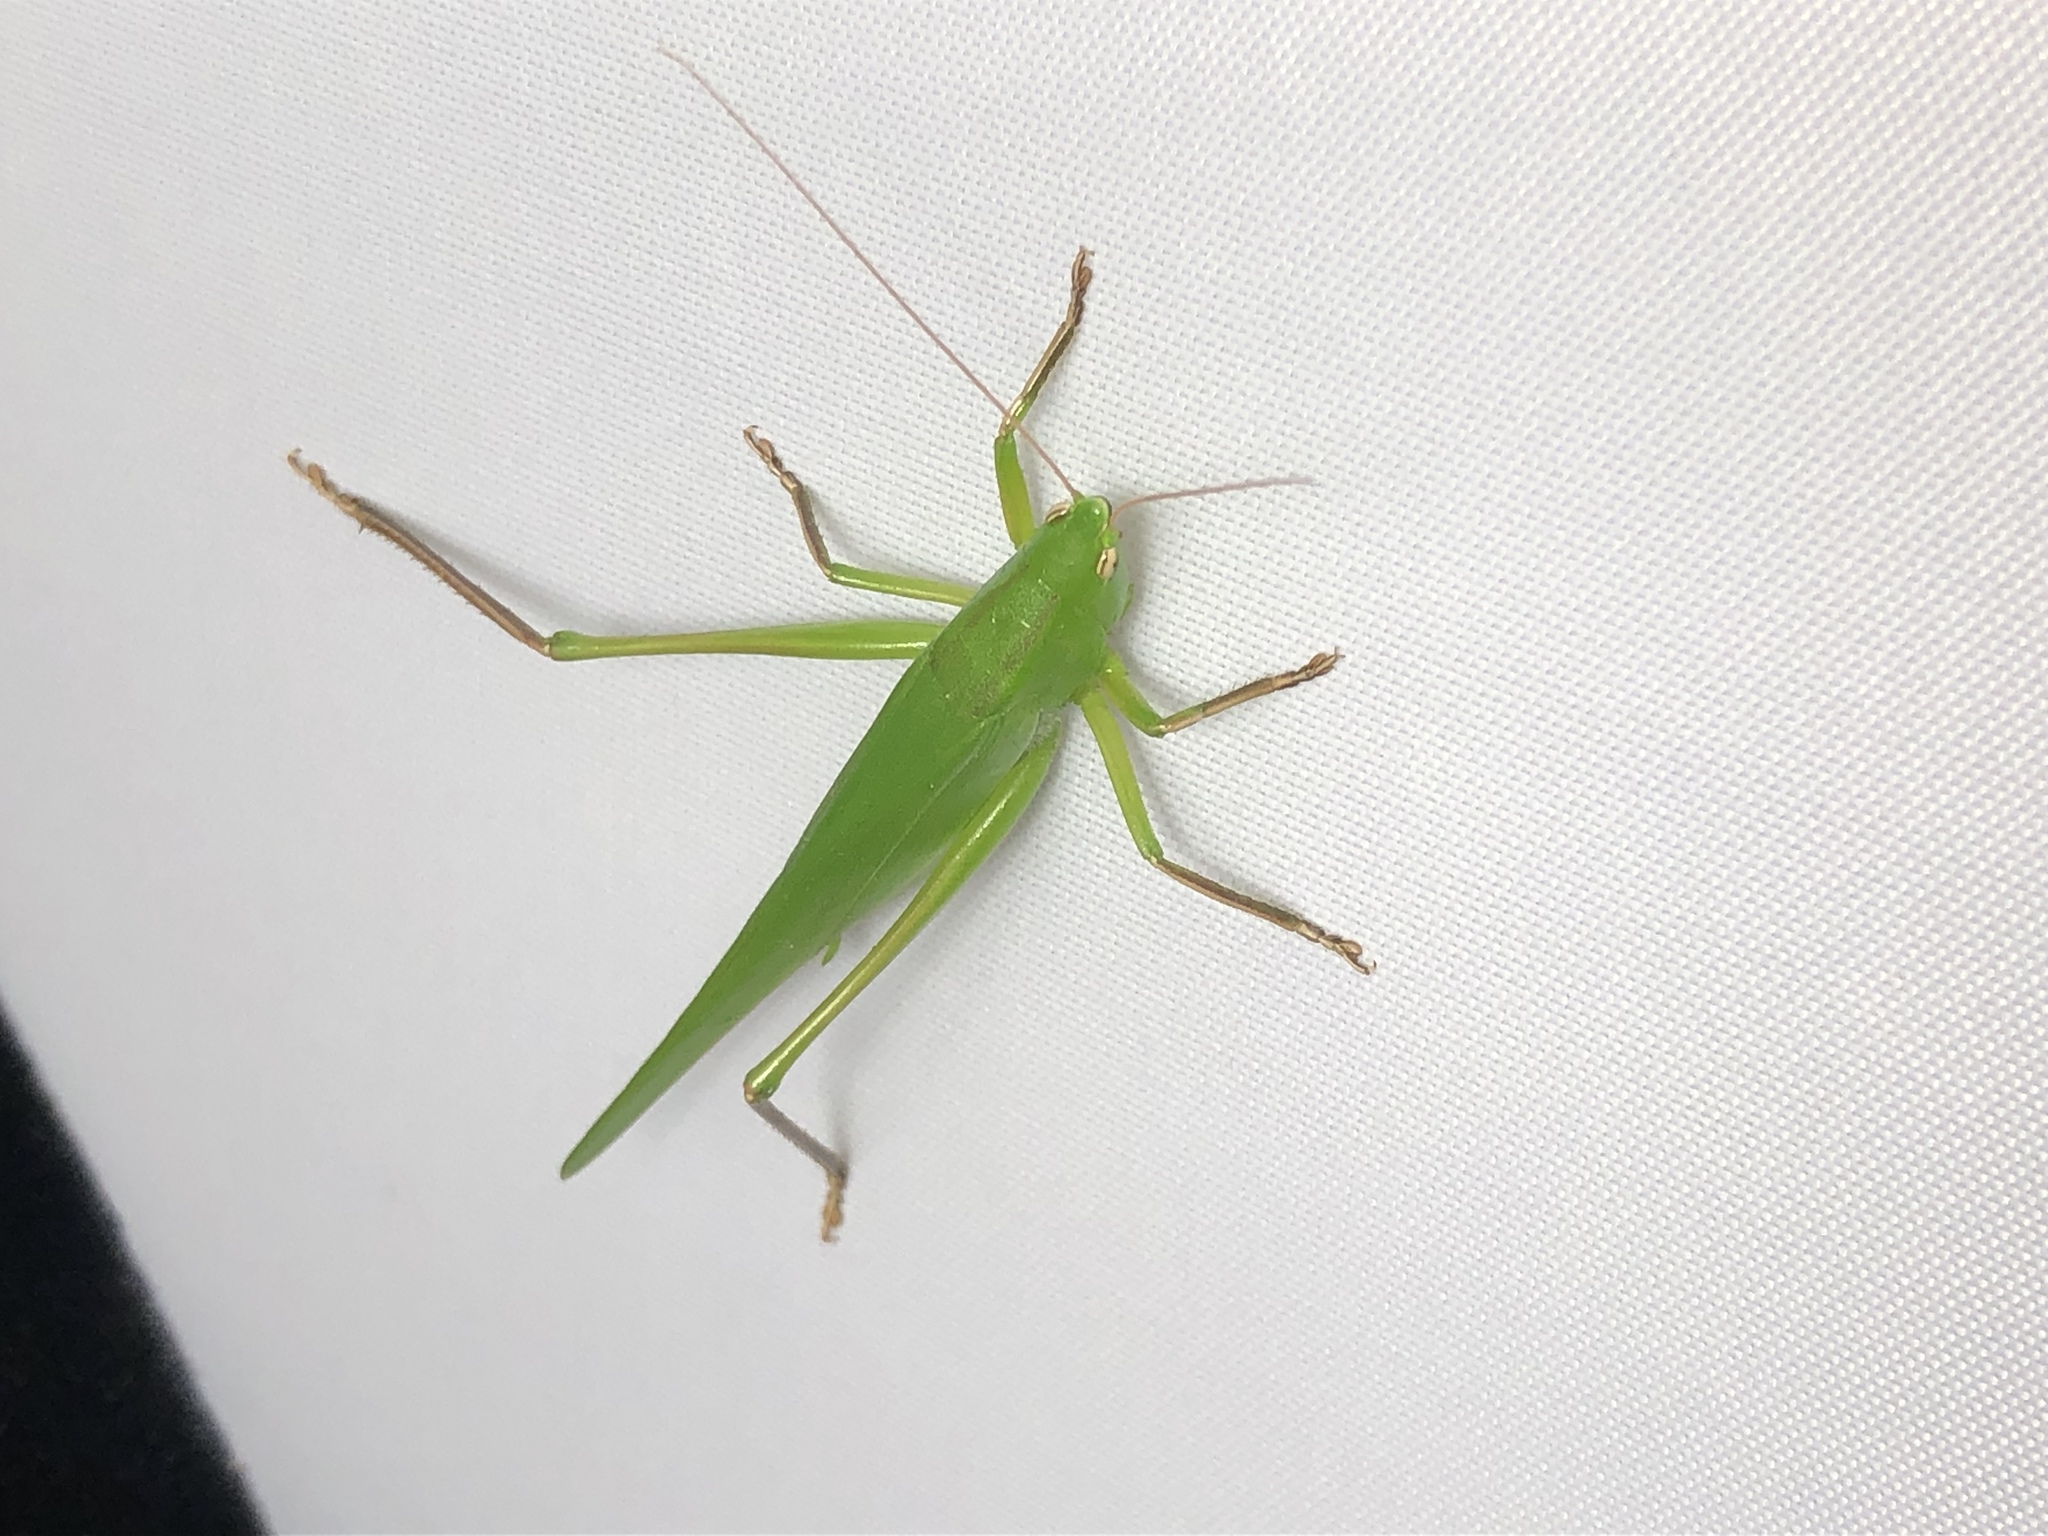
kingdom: Animalia
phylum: Arthropoda
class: Insecta
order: Orthoptera
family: Tettigoniidae
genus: Neoconocephalus
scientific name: Neoconocephalus triops
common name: Broad-tipped conehead
